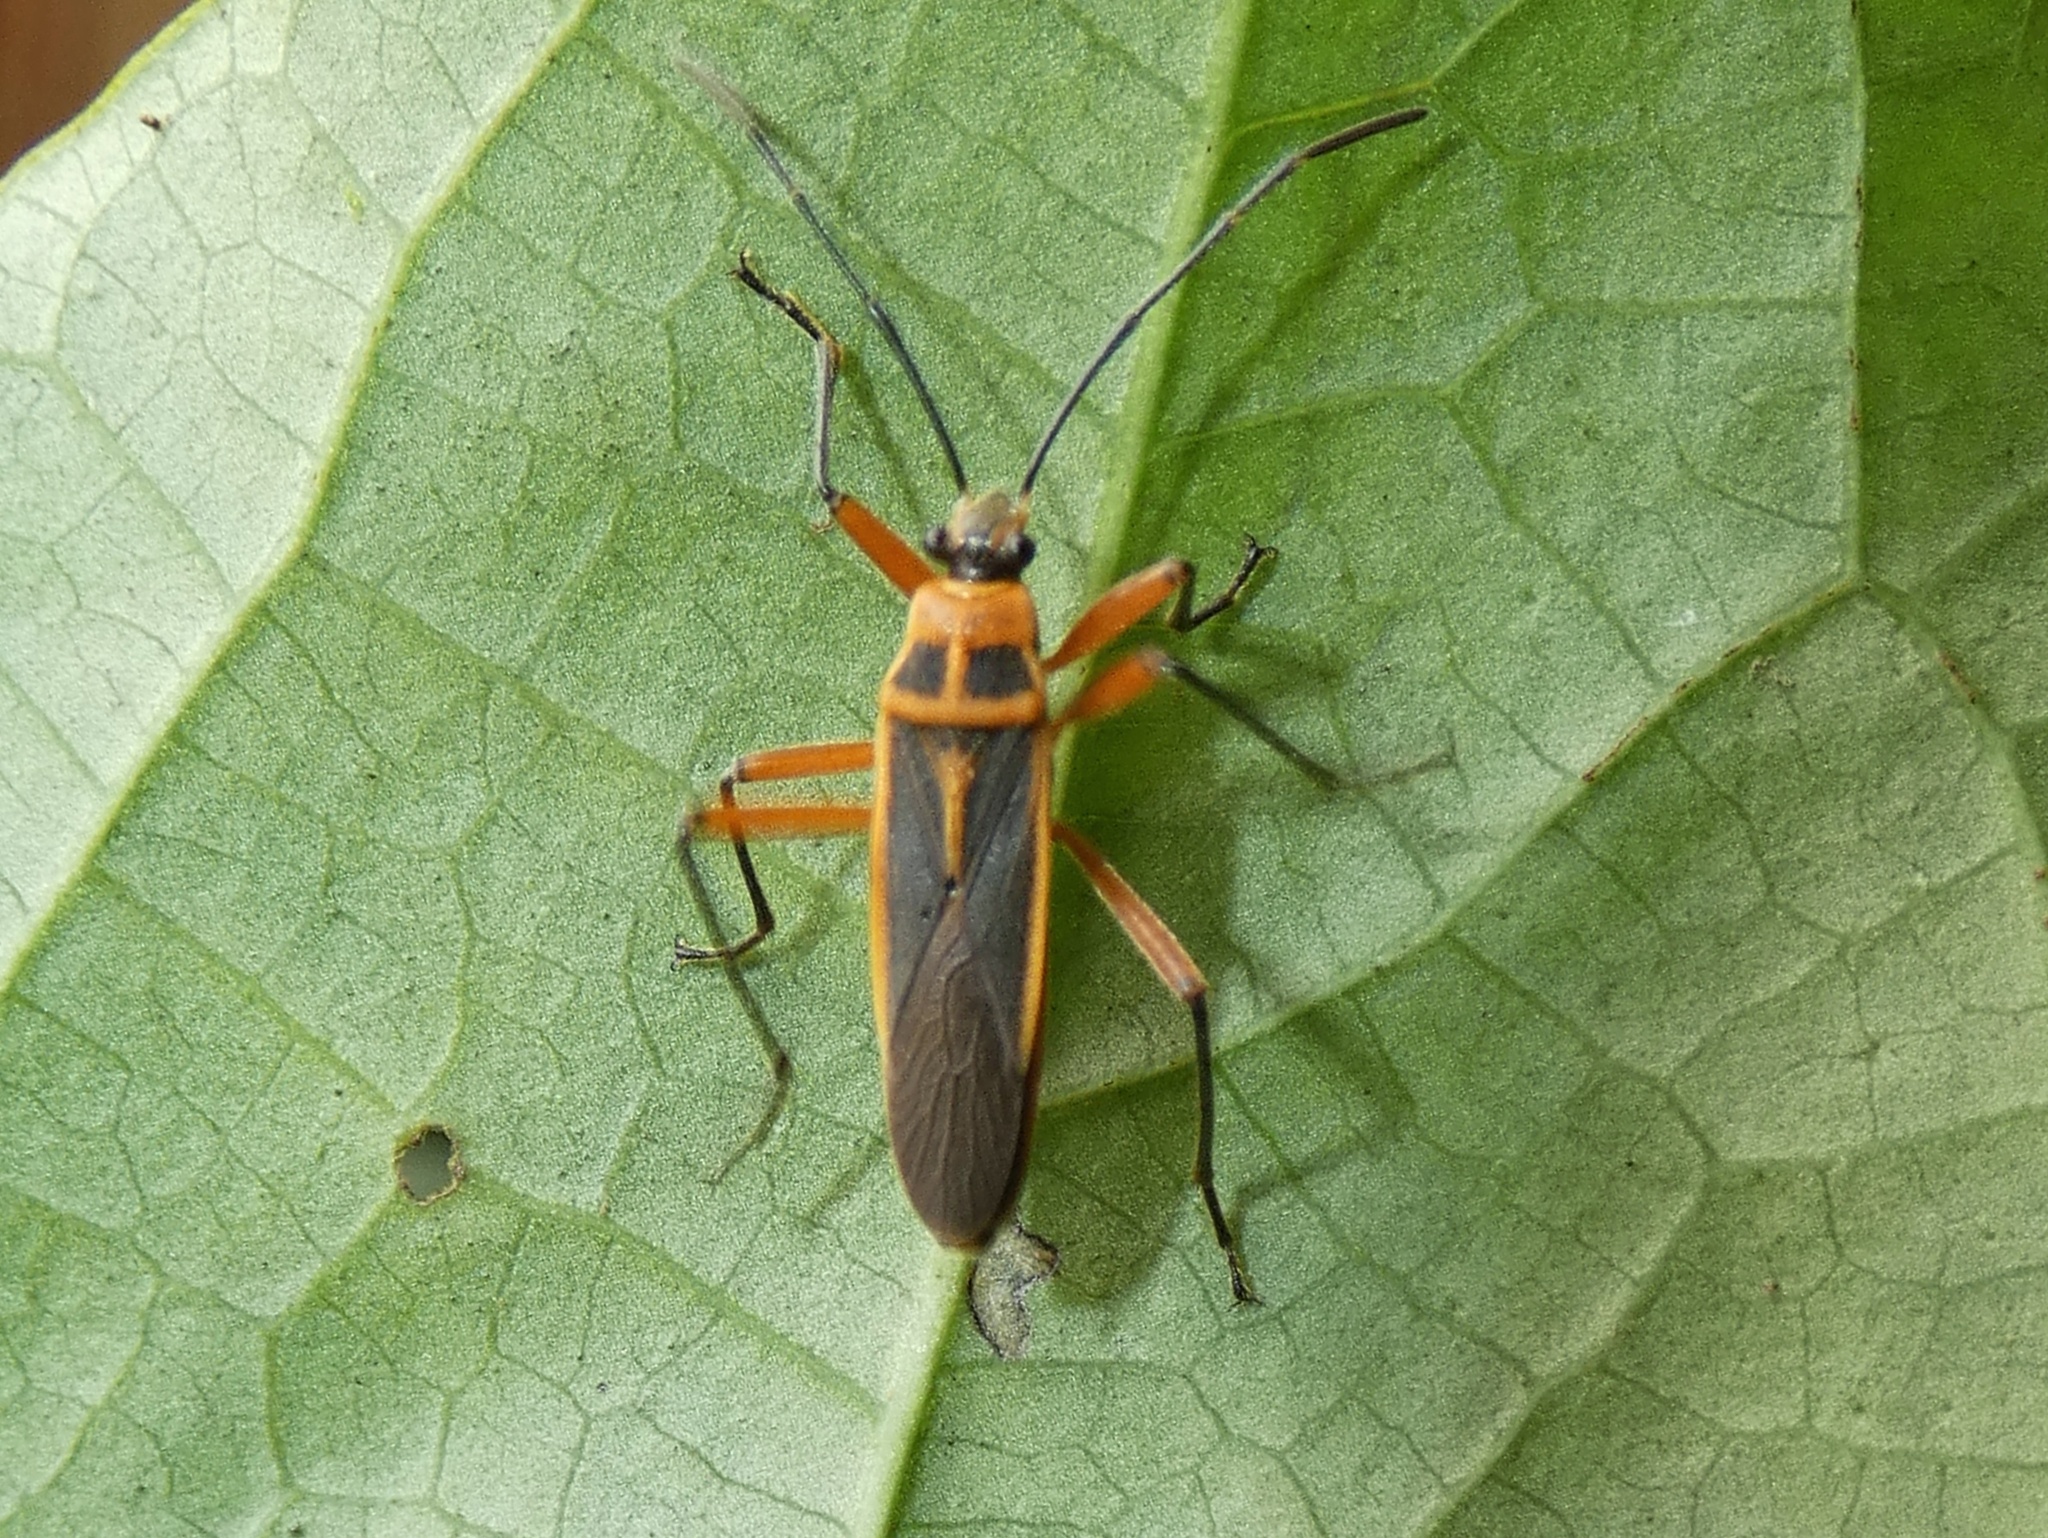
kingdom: Animalia
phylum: Arthropoda
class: Insecta
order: Hemiptera
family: Largidae
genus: Stenomacra
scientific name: Stenomacra marginella
